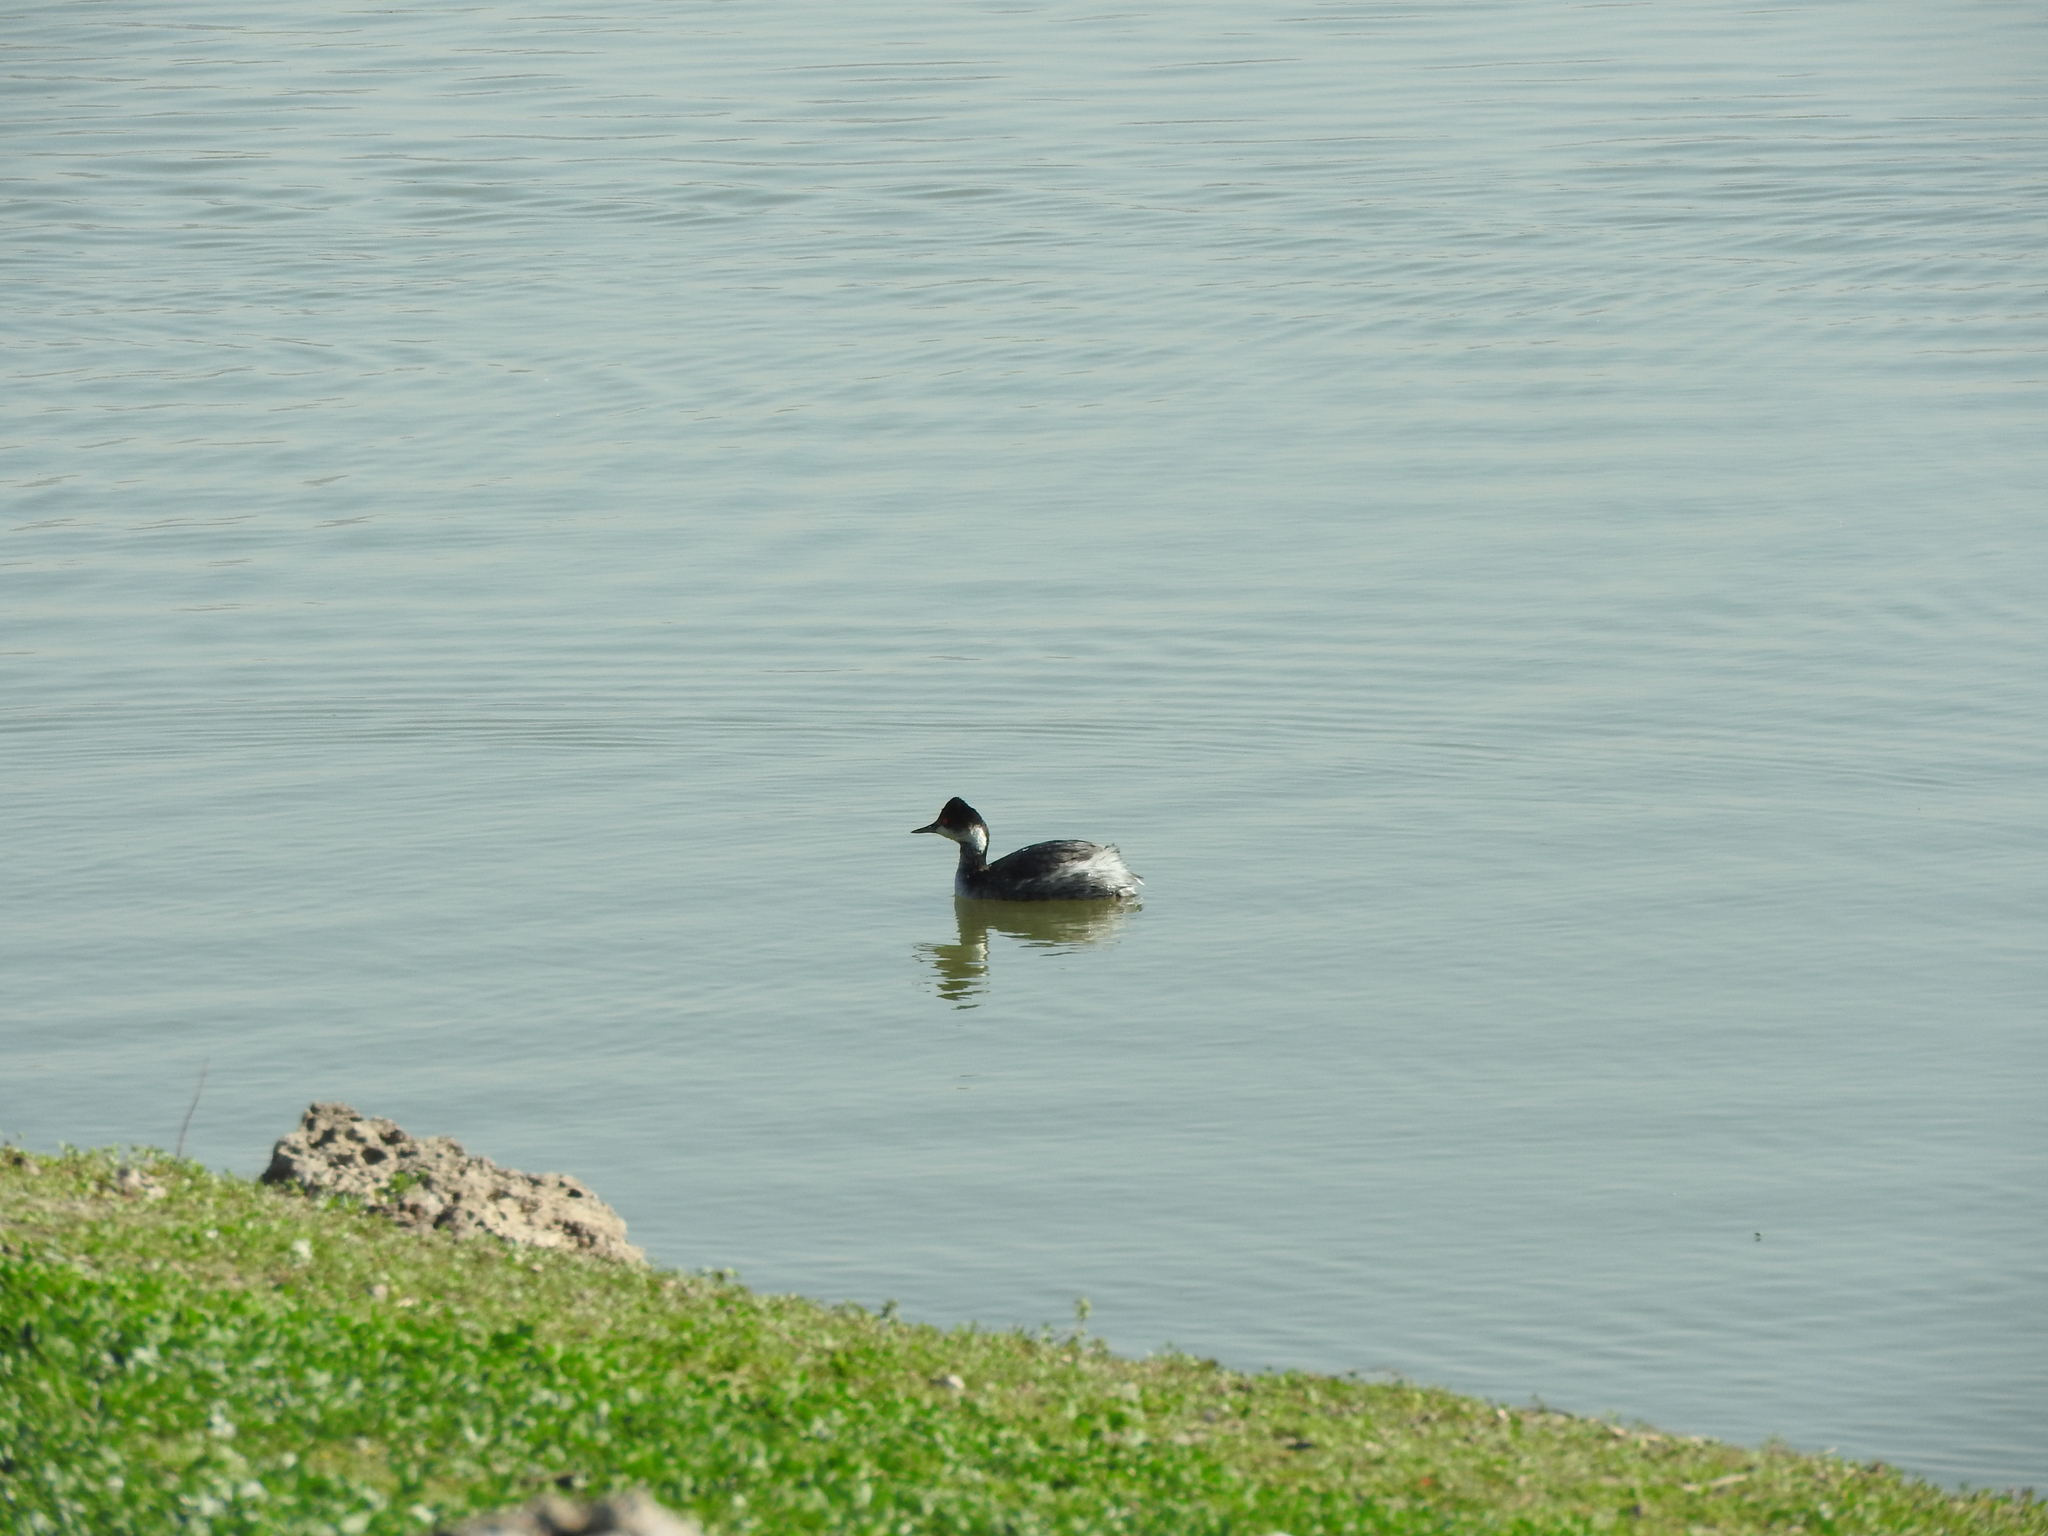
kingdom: Animalia
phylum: Chordata
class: Aves
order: Podicipediformes
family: Podicipedidae
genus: Podiceps
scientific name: Podiceps nigricollis
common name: Black-necked grebe
